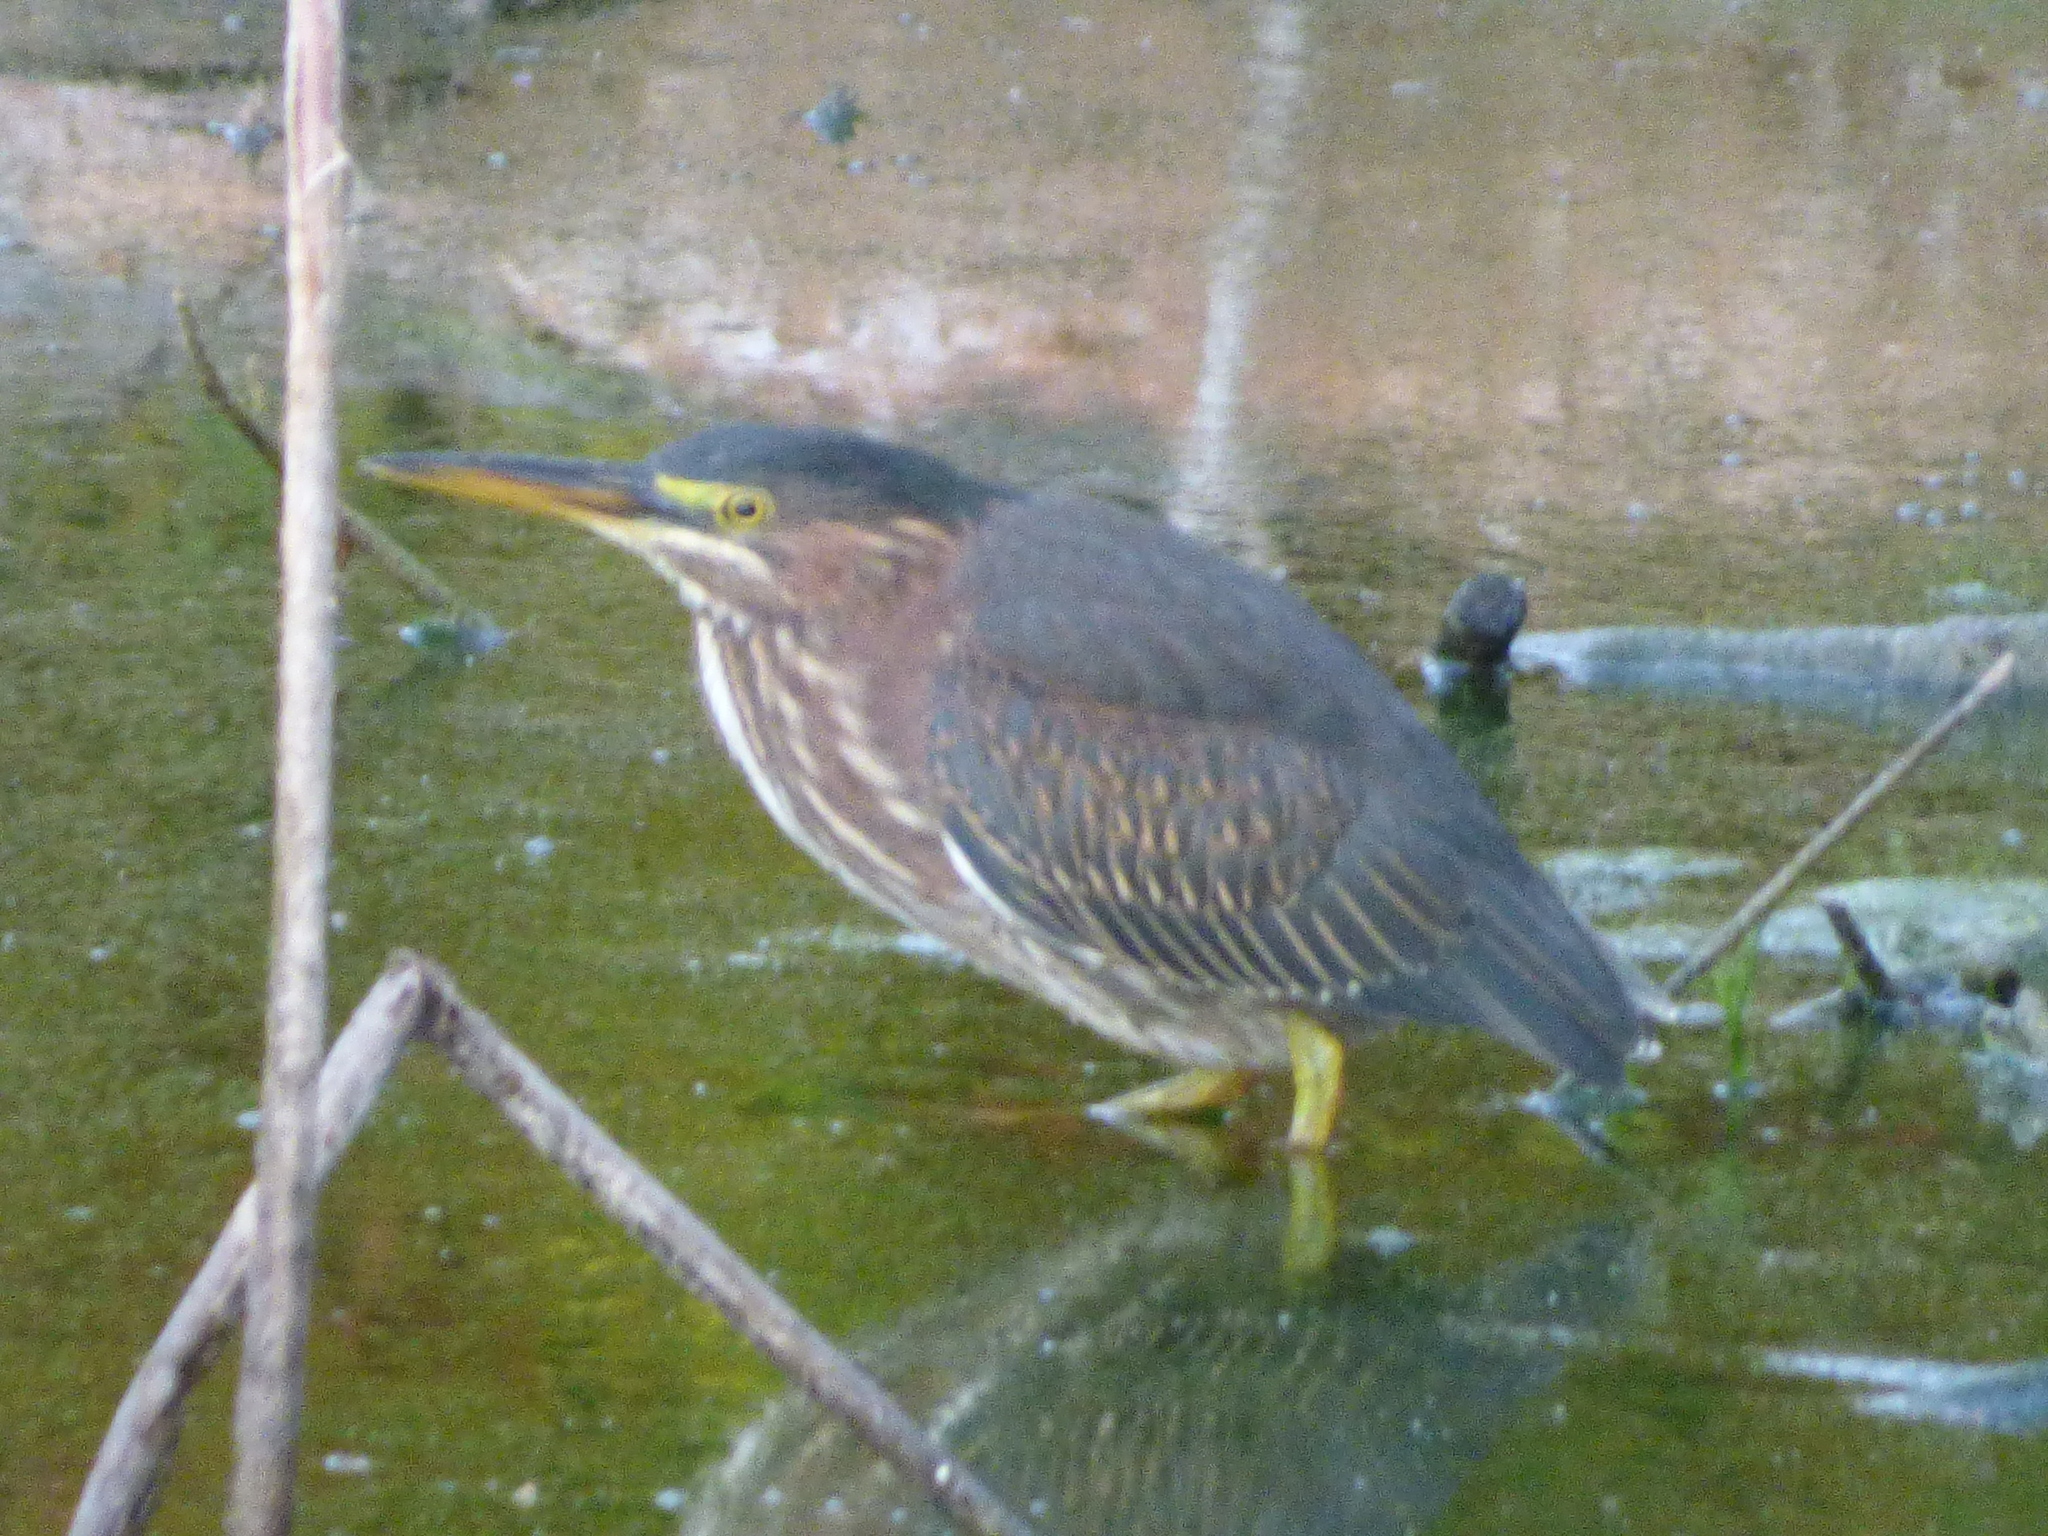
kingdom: Animalia
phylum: Chordata
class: Aves
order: Pelecaniformes
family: Ardeidae
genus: Butorides
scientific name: Butorides virescens
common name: Green heron
